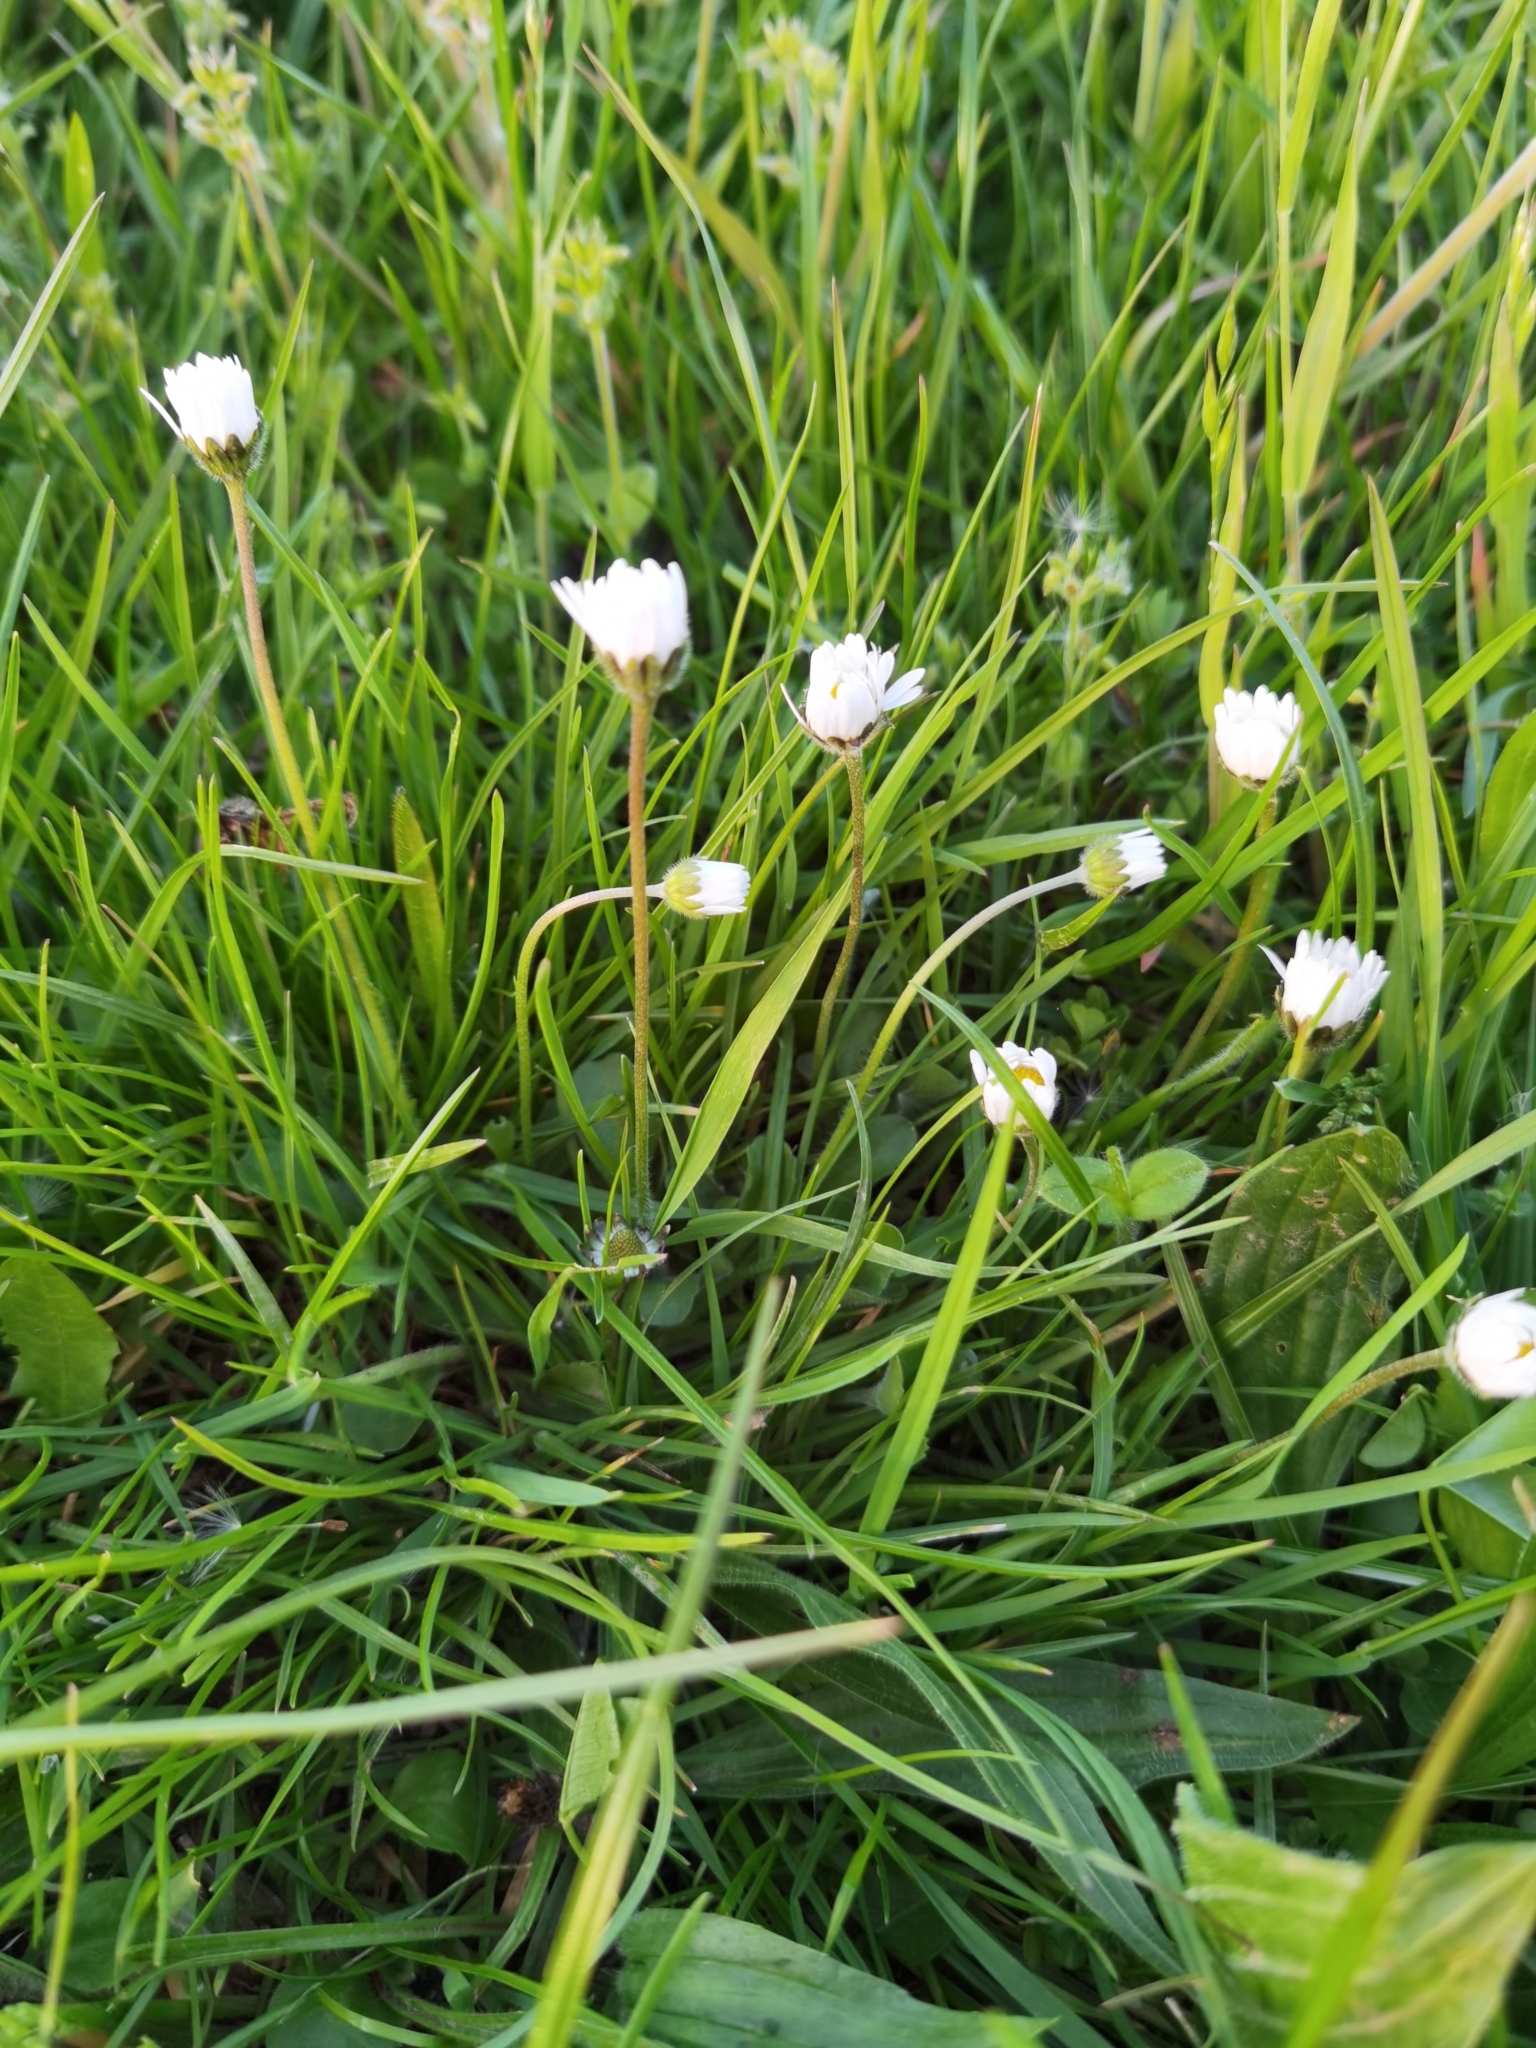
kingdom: Plantae
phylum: Tracheophyta
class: Magnoliopsida
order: Asterales
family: Asteraceae
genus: Bellis
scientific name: Bellis perennis
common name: Lawndaisy
